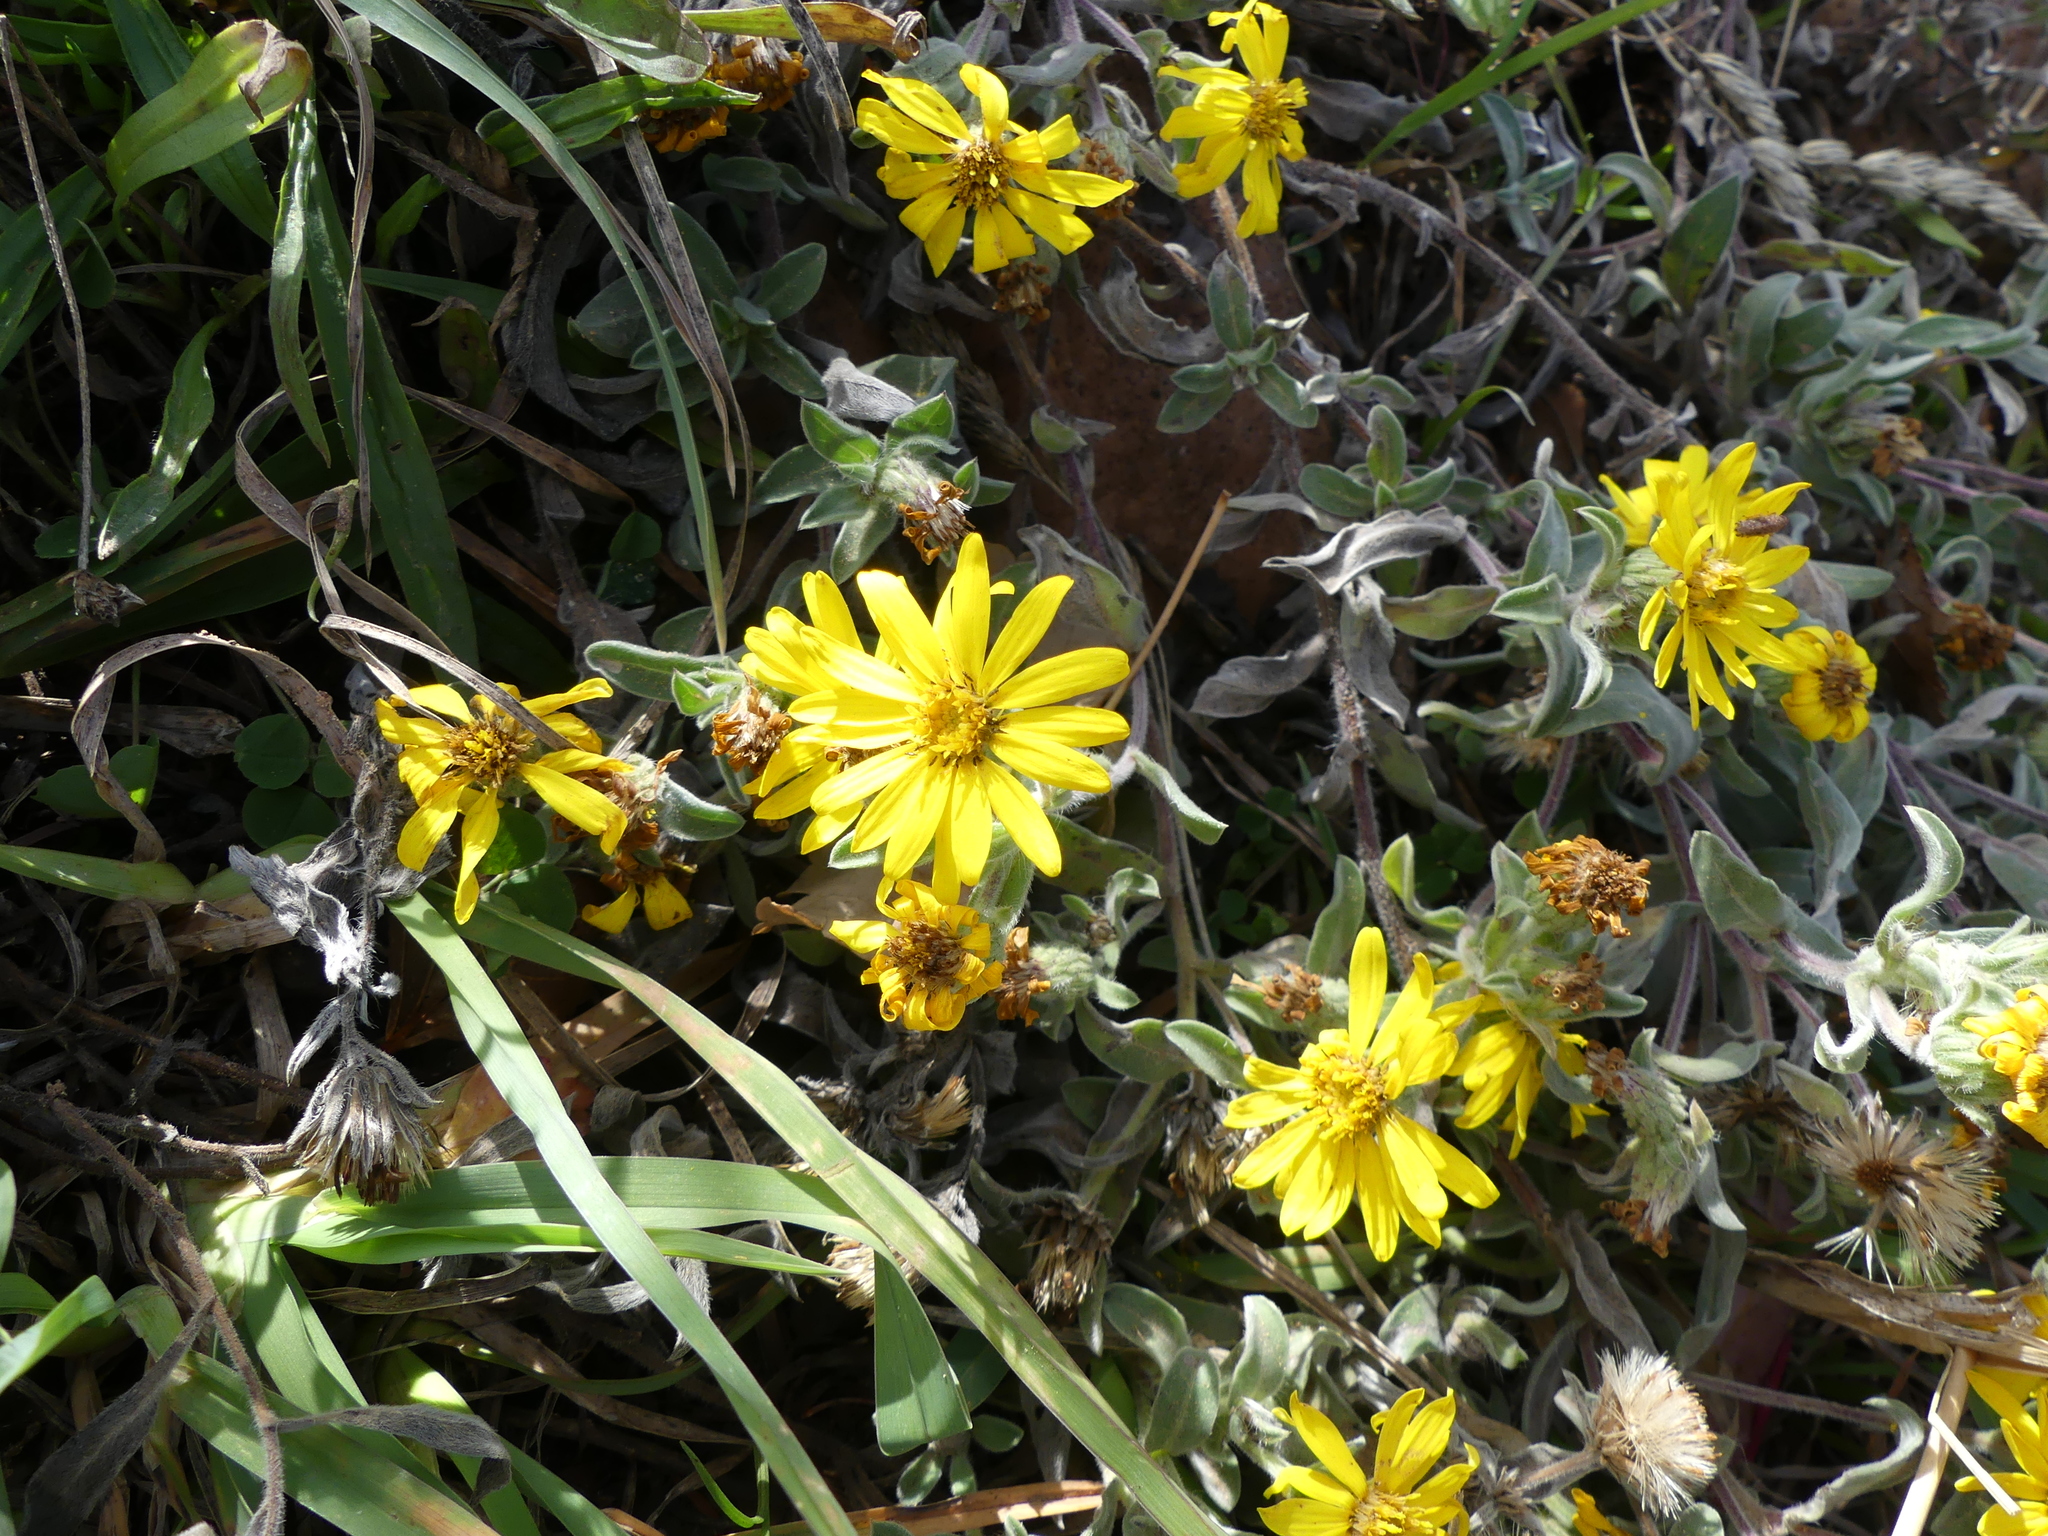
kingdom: Plantae
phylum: Tracheophyta
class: Magnoliopsida
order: Asterales
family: Asteraceae
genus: Heterotheca
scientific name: Heterotheca villosa
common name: Hairy false goldenaster
